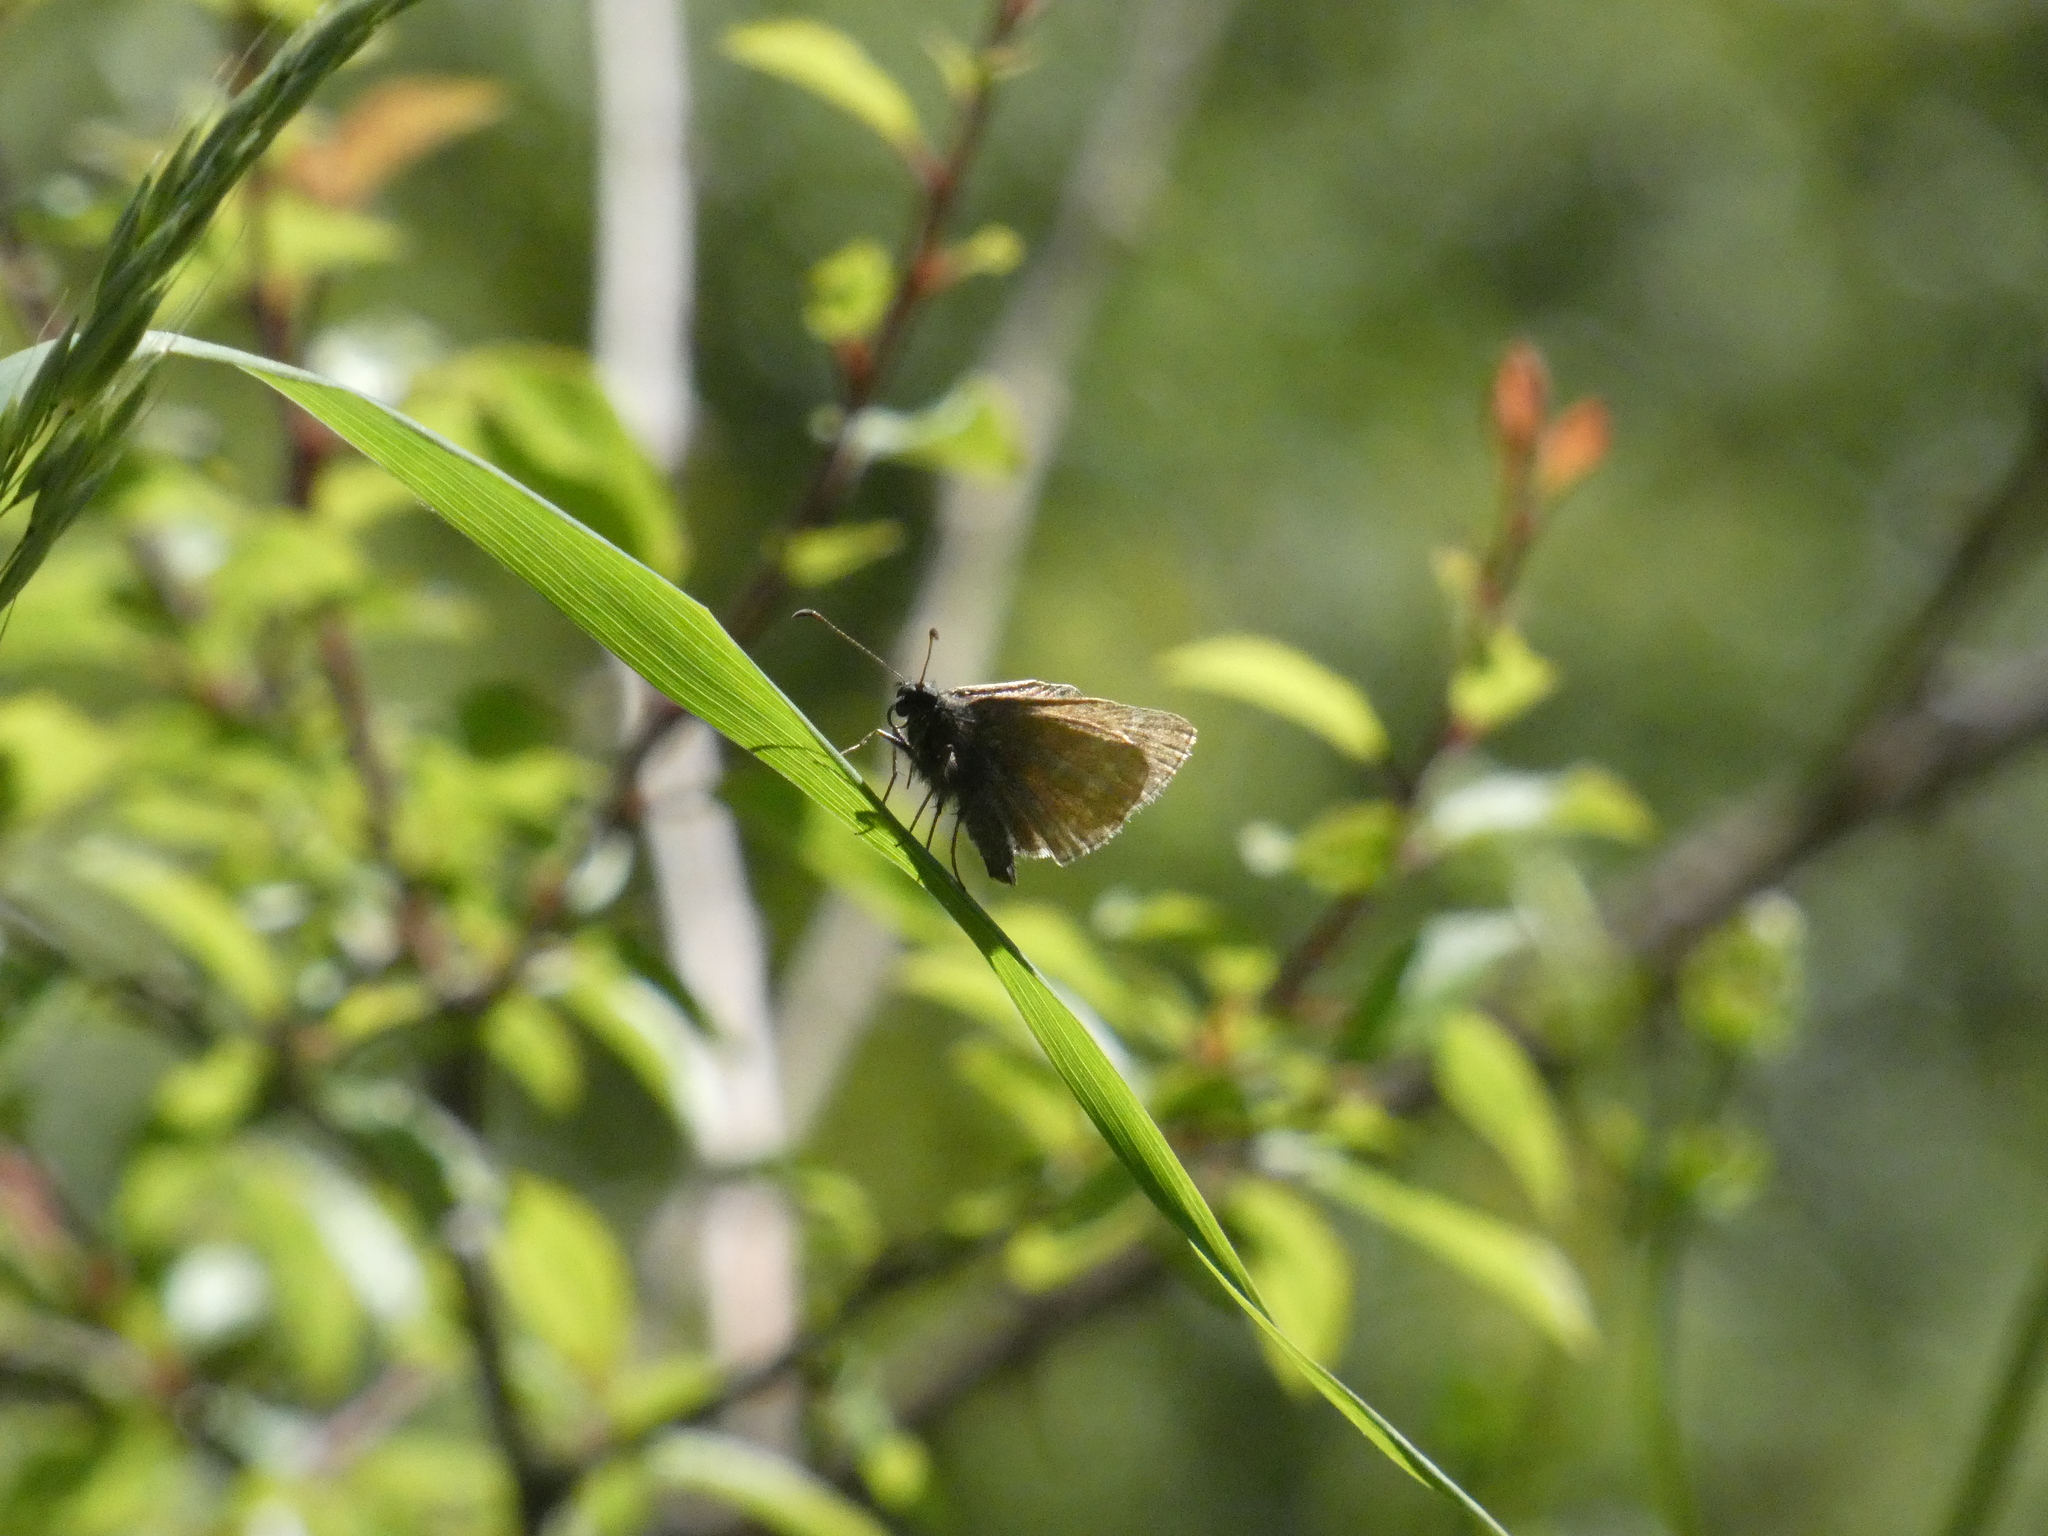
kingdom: Animalia
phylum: Arthropoda
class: Insecta
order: Lepidoptera
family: Hesperiidae
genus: Erynnis
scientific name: Erynnis tages
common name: Dingy skipper
